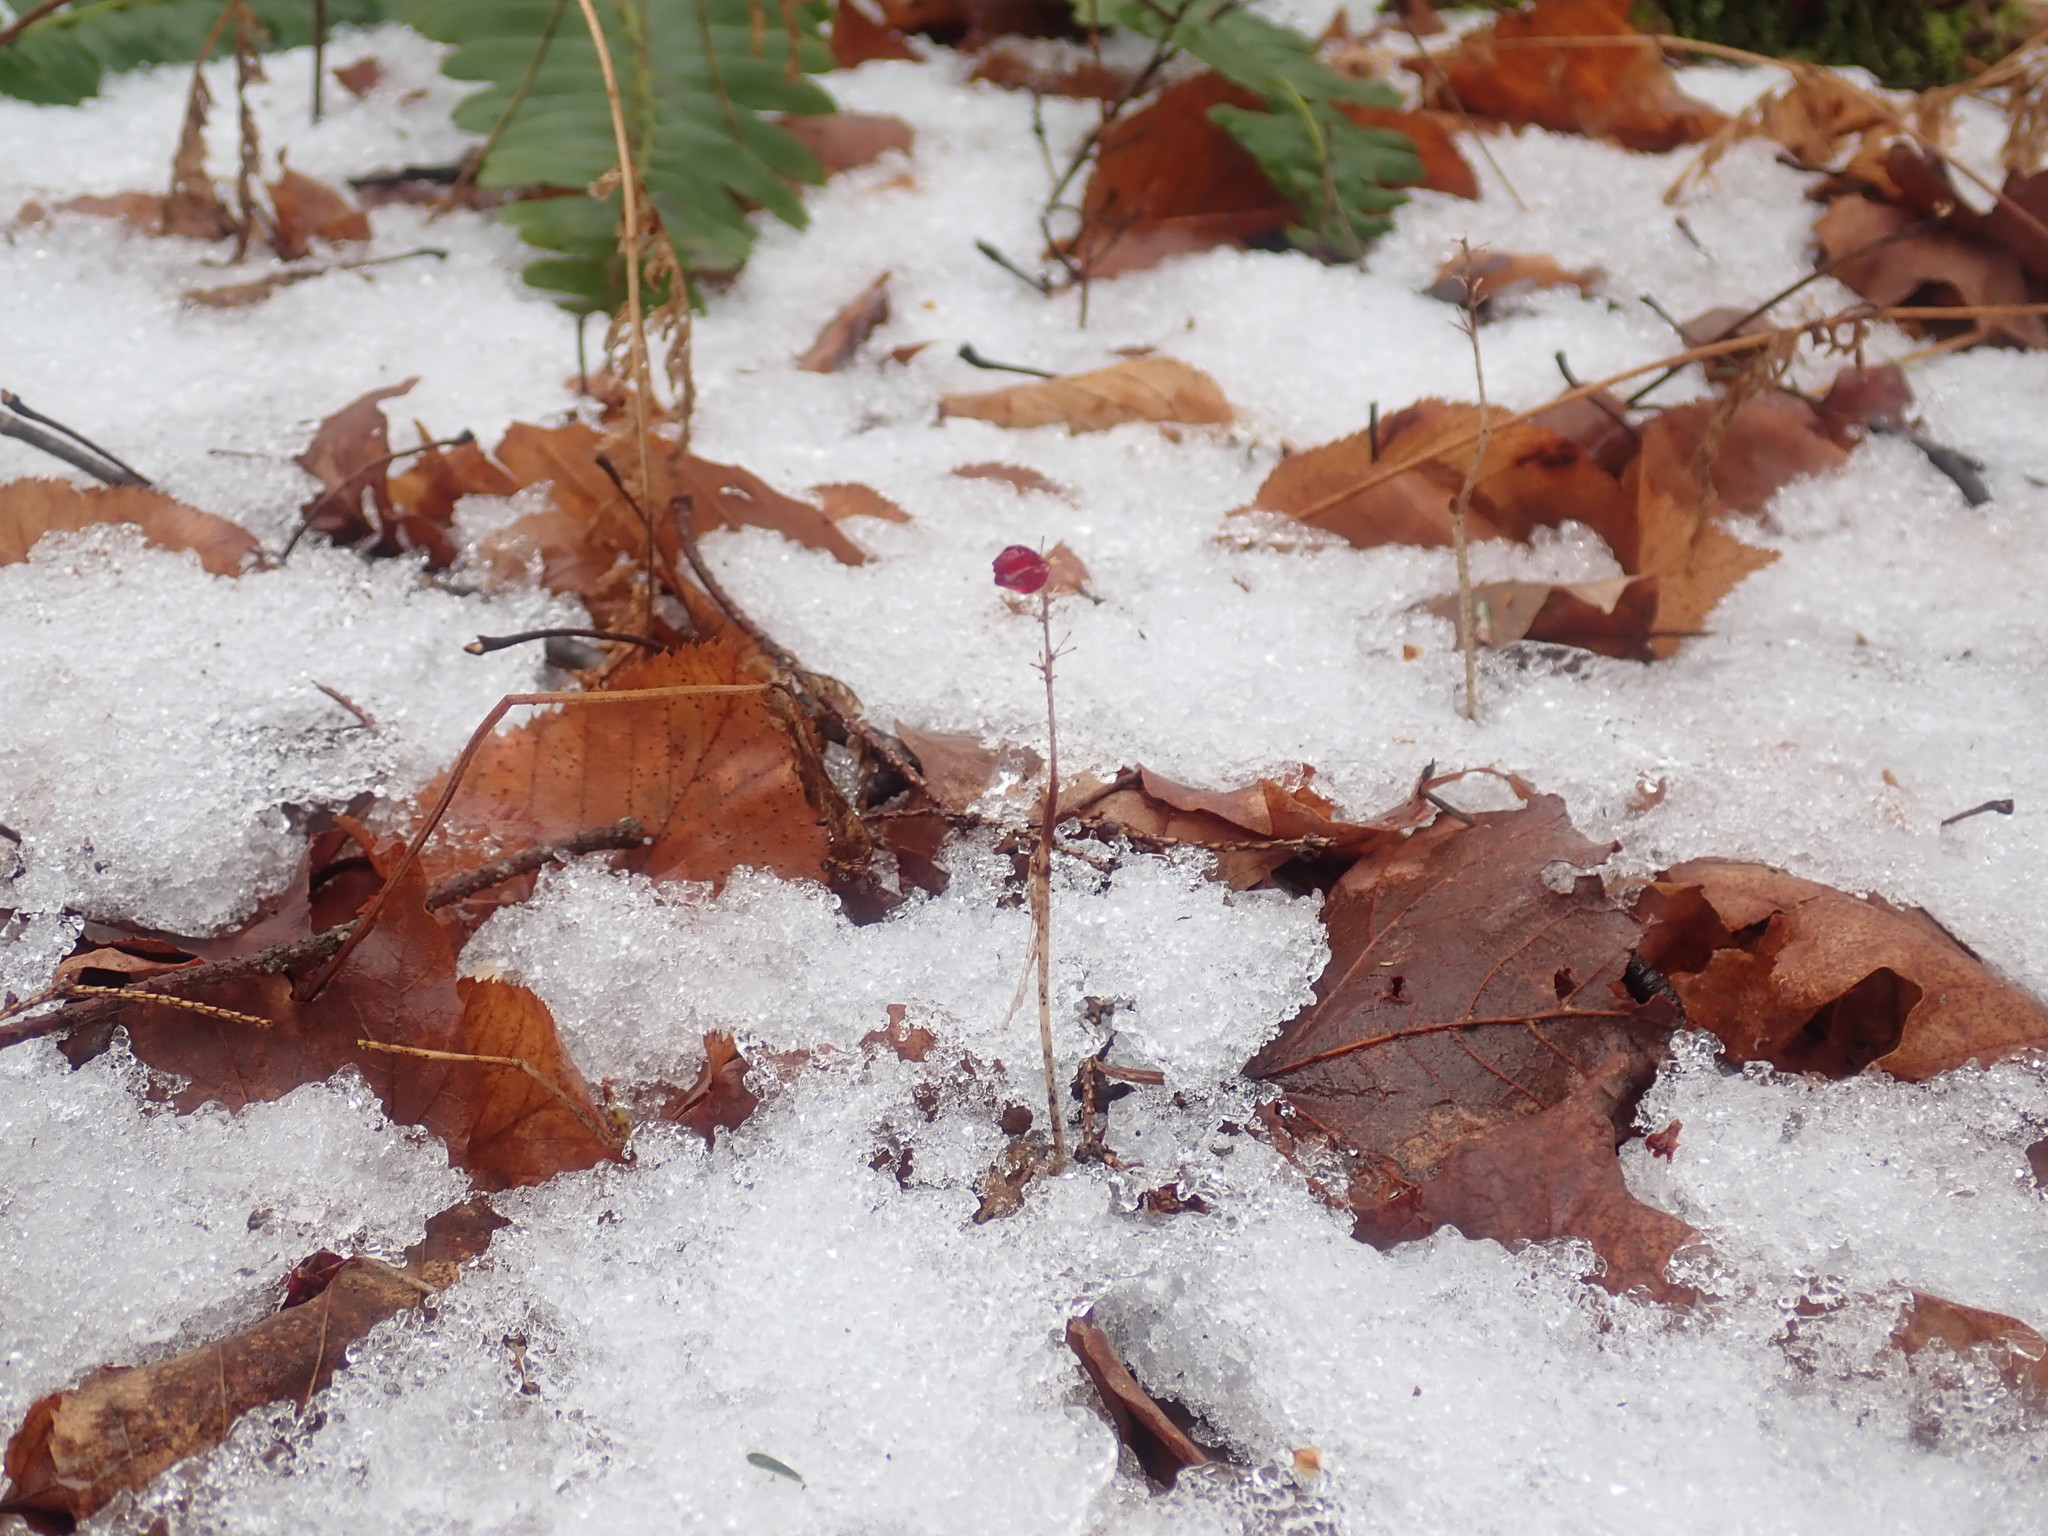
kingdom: Plantae
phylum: Tracheophyta
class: Liliopsida
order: Asparagales
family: Asparagaceae
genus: Maianthemum
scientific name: Maianthemum canadense
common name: False lily-of-the-valley
